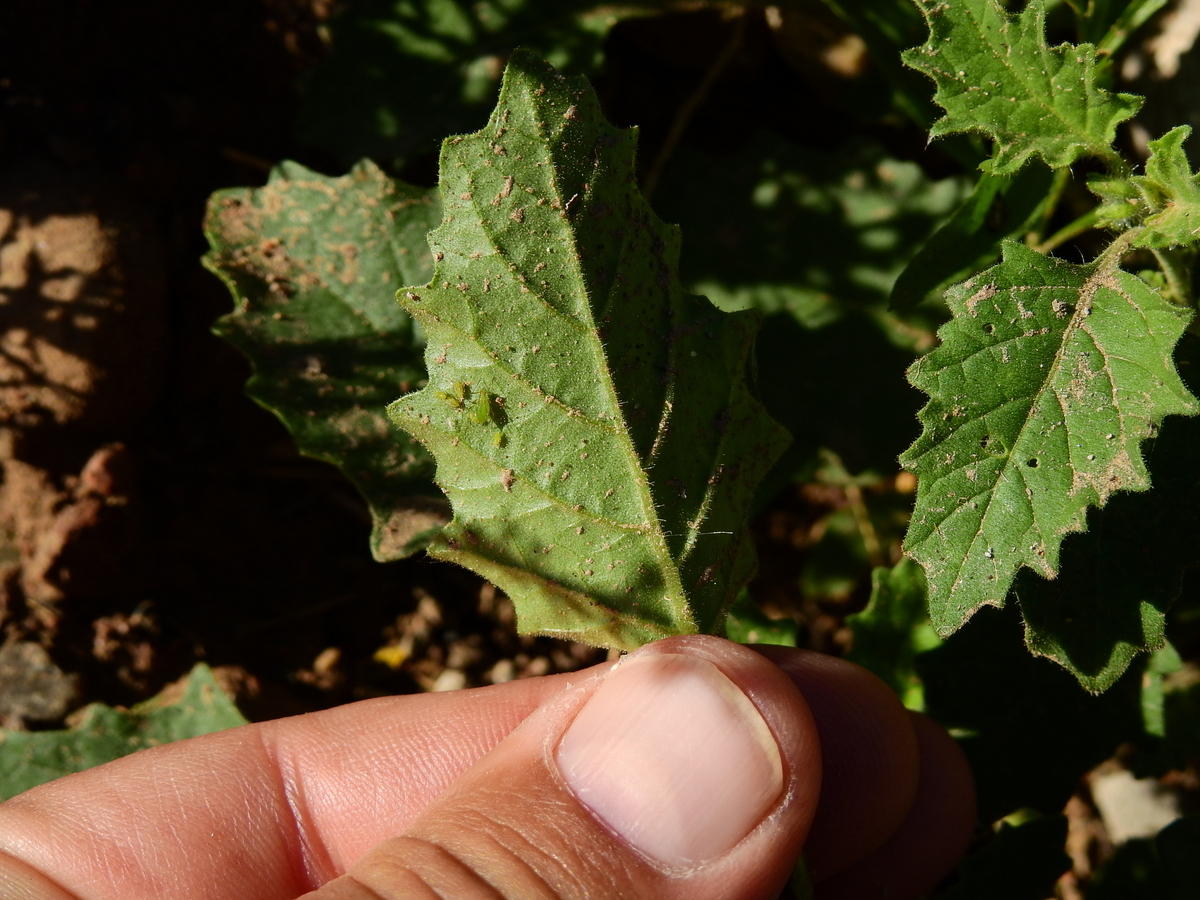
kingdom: Plantae
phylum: Tracheophyta
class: Magnoliopsida
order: Solanales
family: Solanaceae
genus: Solanum
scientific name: Solanum tweedianum
